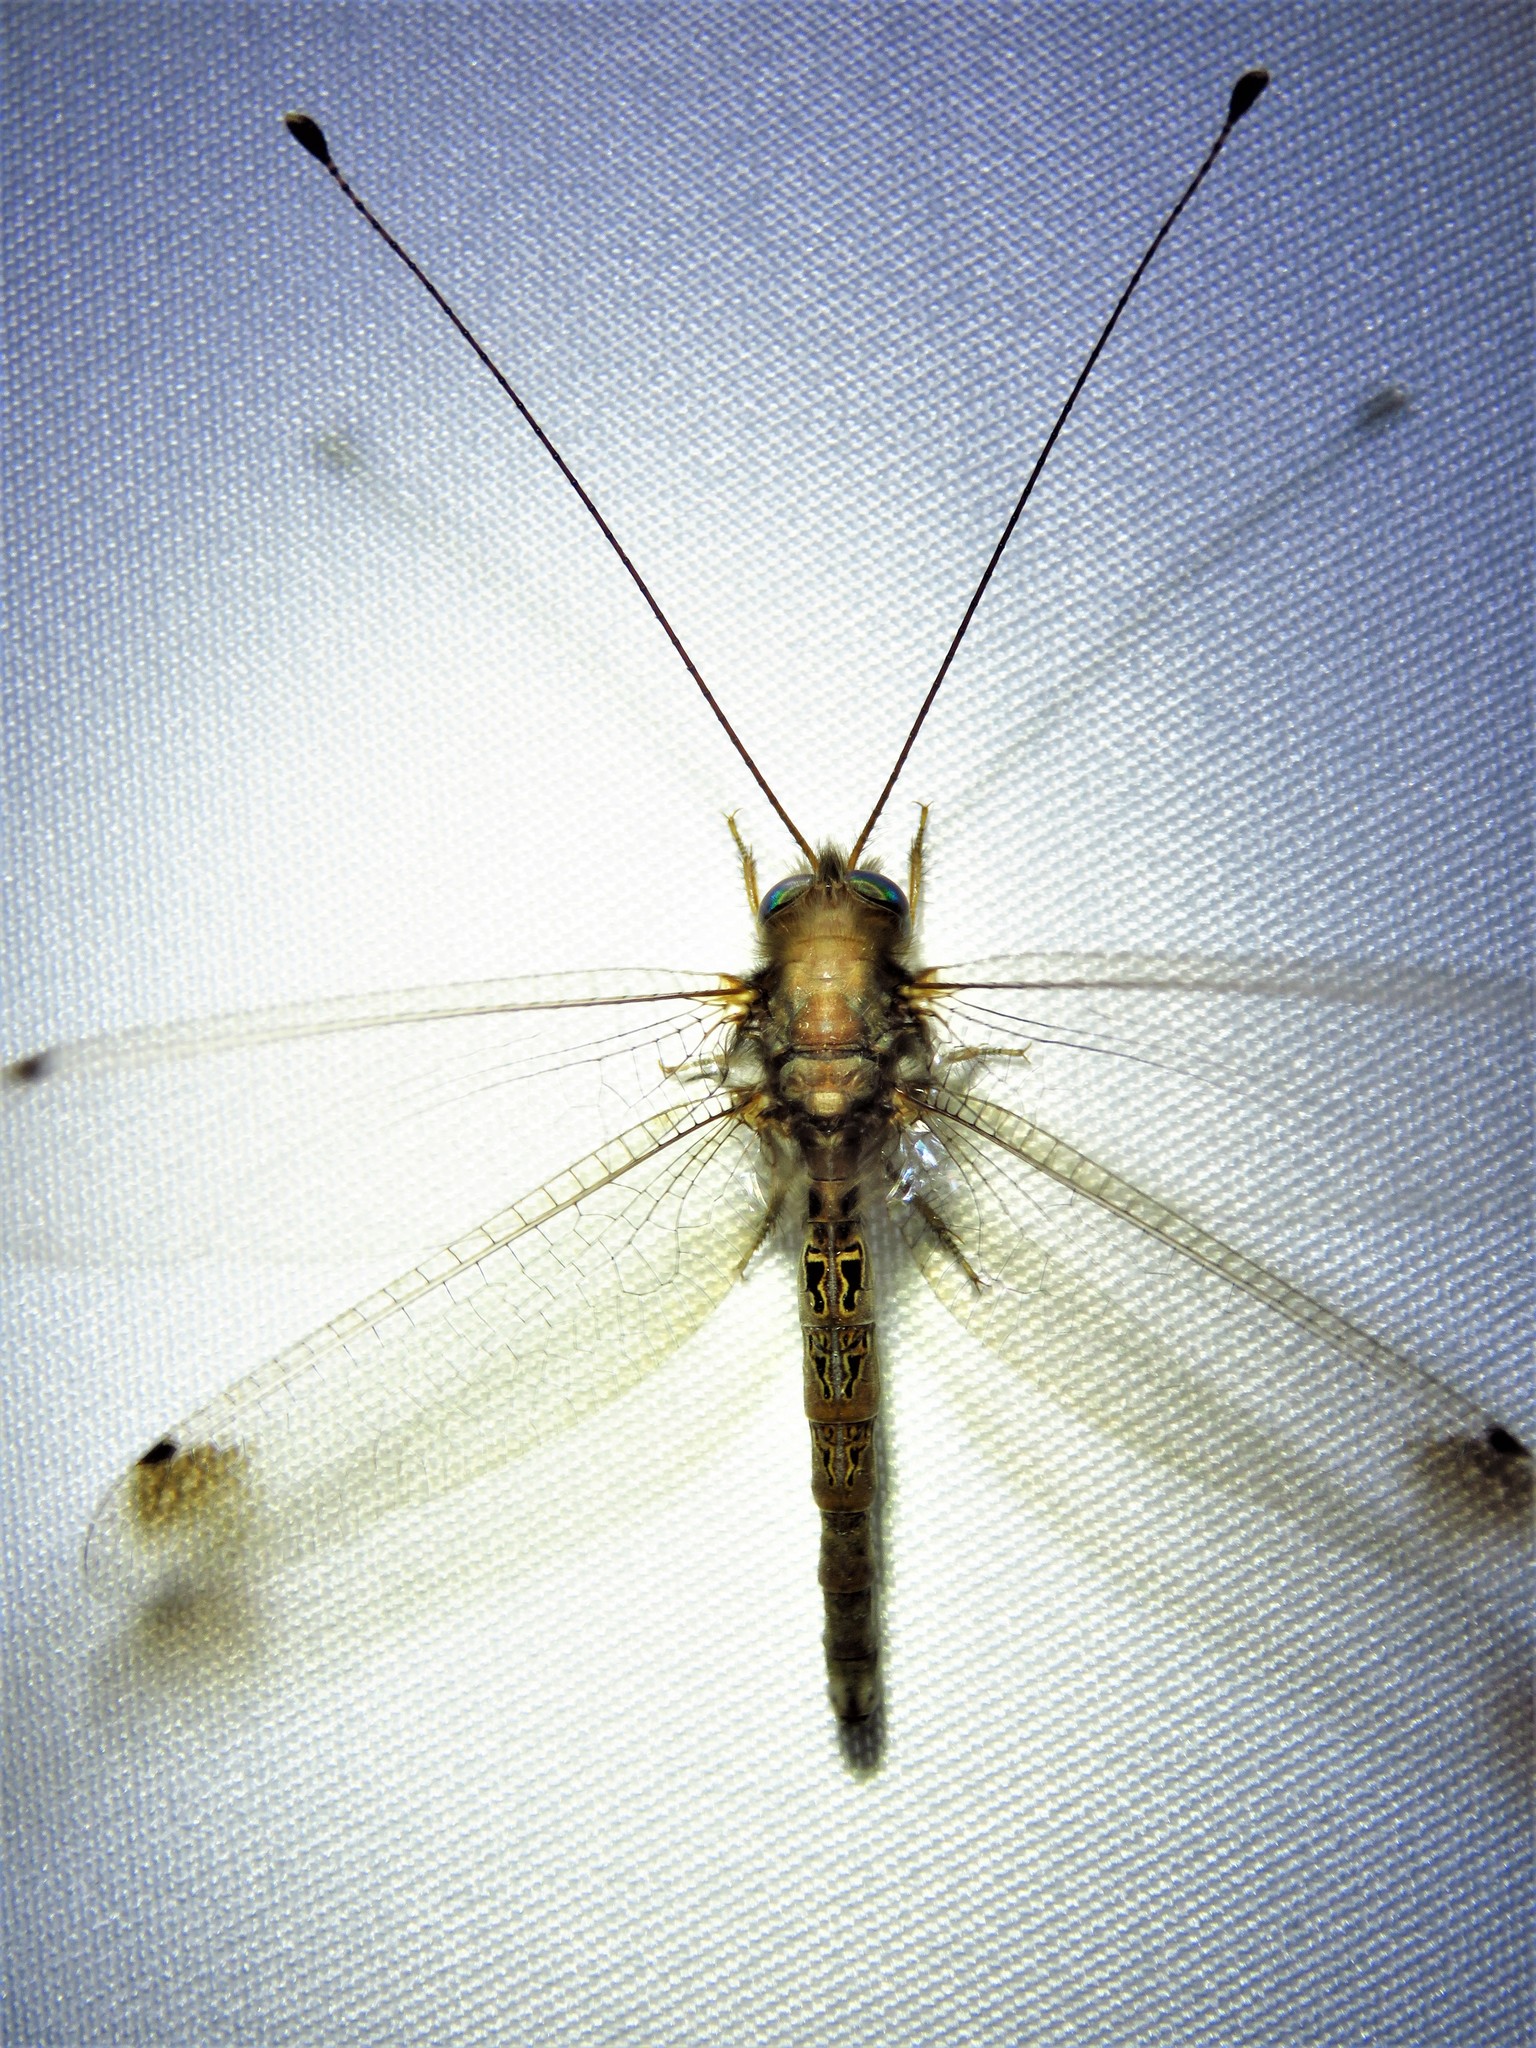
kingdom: Animalia
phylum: Arthropoda
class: Insecta
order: Neuroptera
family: Ascalaphidae
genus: Ululodes
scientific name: Ululodes macleayanus
